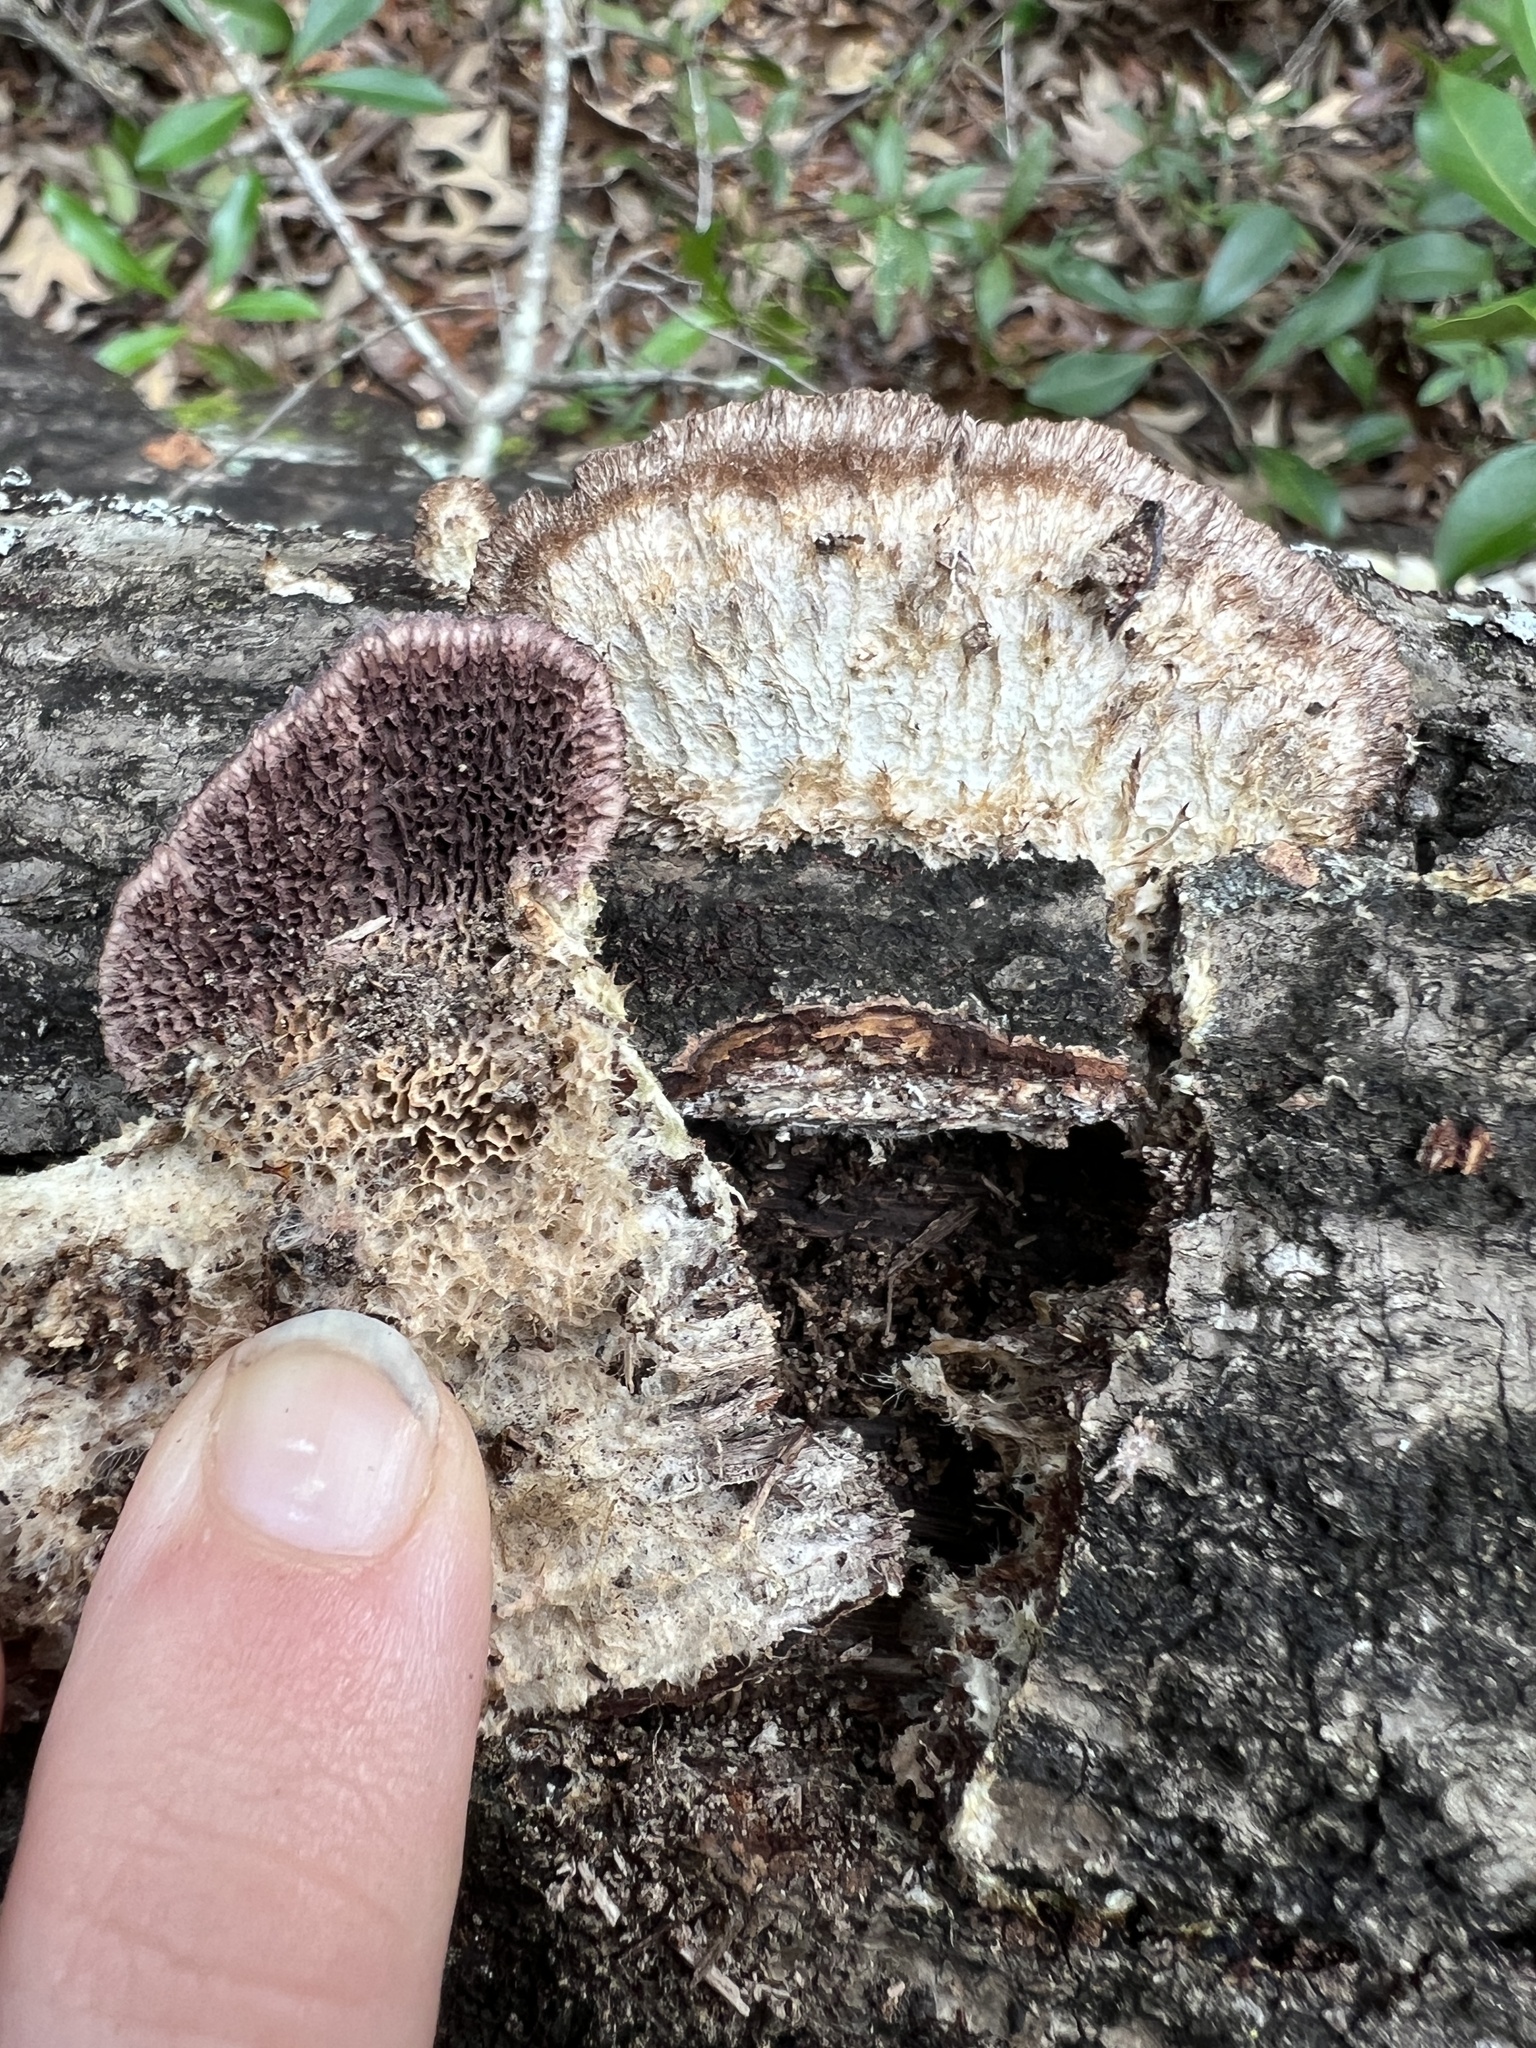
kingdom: Fungi
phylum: Basidiomycota
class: Agaricomycetes
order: Hymenochaetales
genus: Trichaptum
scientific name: Trichaptum abietinum
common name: Purplepore bracket
